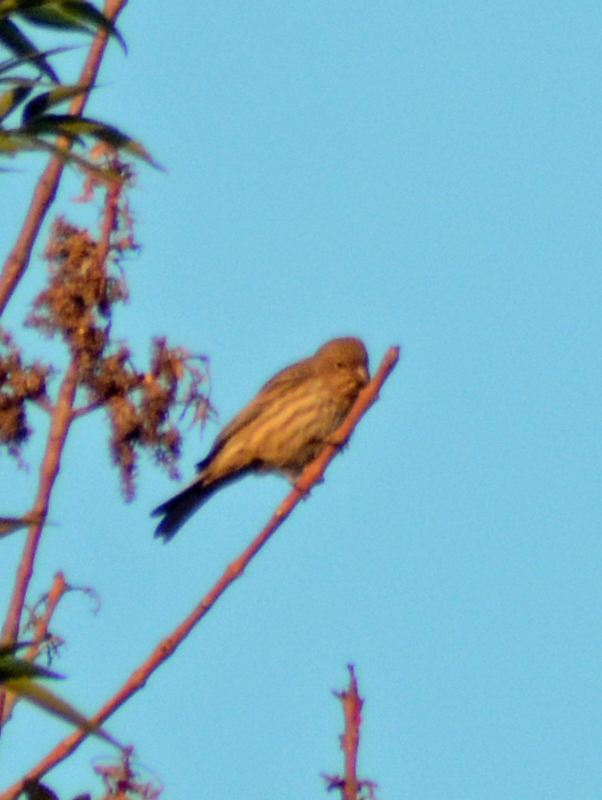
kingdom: Animalia
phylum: Chordata
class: Aves
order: Passeriformes
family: Fringillidae
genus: Haemorhous
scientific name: Haemorhous mexicanus
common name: House finch
